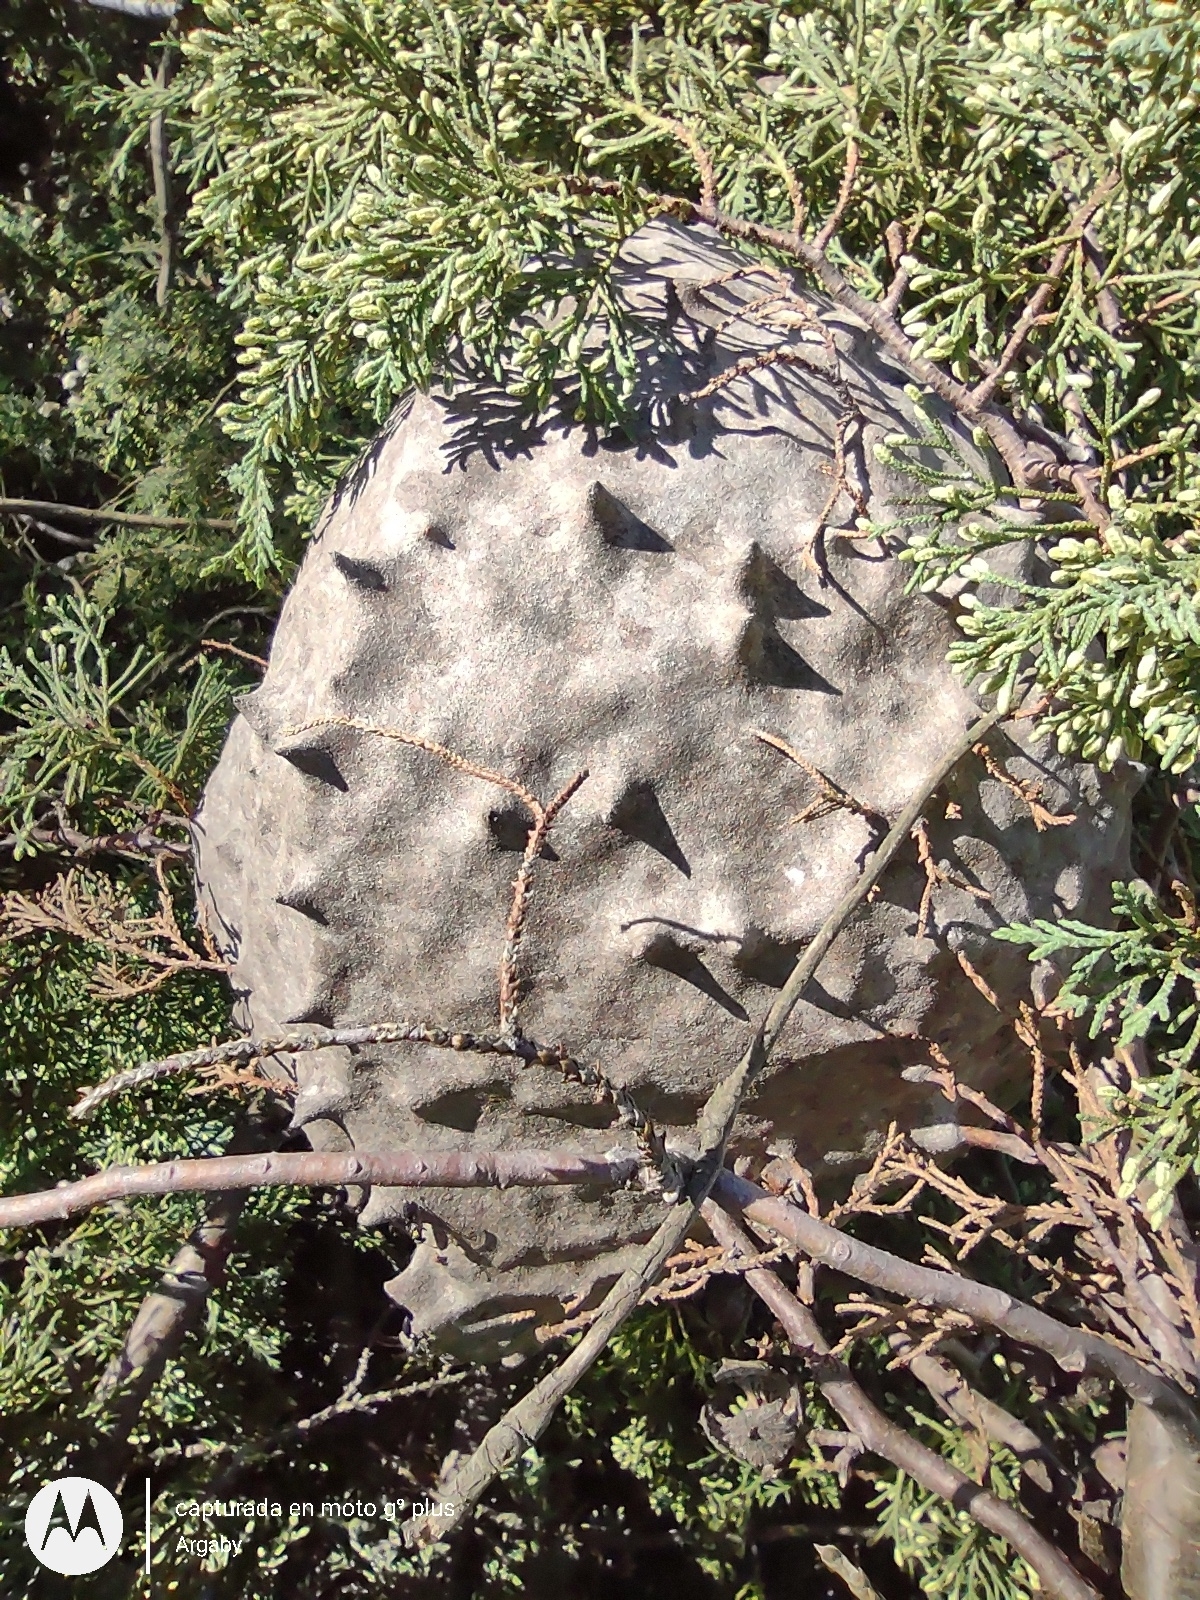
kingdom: Animalia
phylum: Arthropoda
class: Insecta
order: Hymenoptera
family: Eumenidae
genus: Polybia
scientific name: Polybia scutellaris
